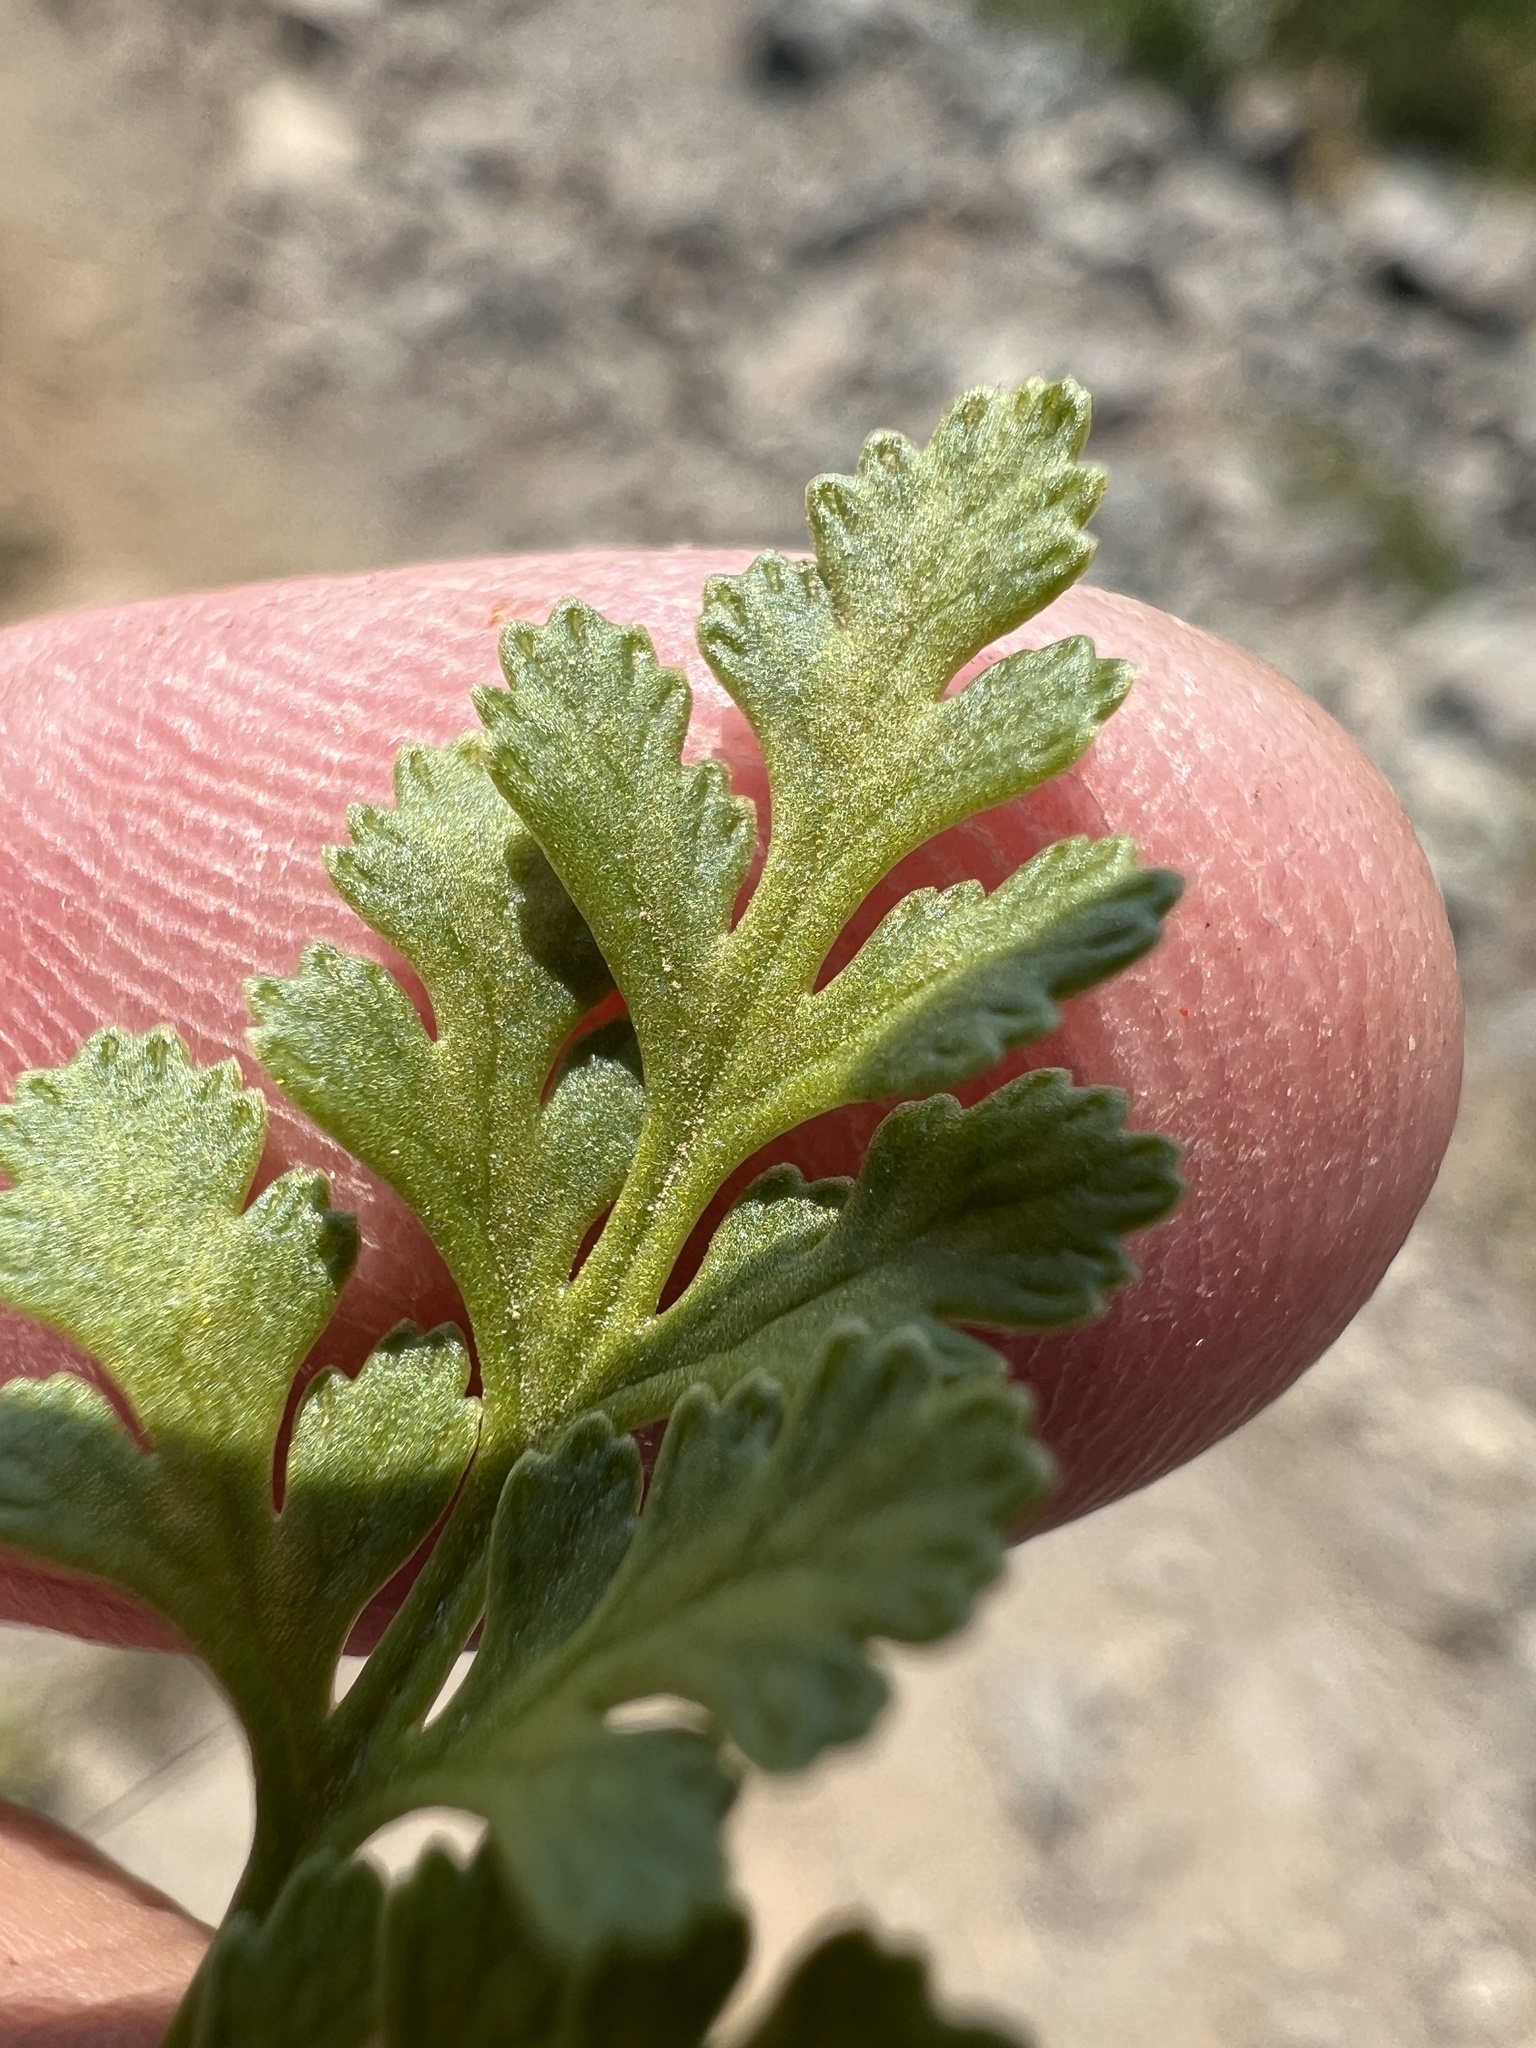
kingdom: Plantae
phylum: Tracheophyta
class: Polypodiopsida
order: Polypodiales
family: Pteridaceae
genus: Cryptogramma
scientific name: Cryptogramma acrostichoides
